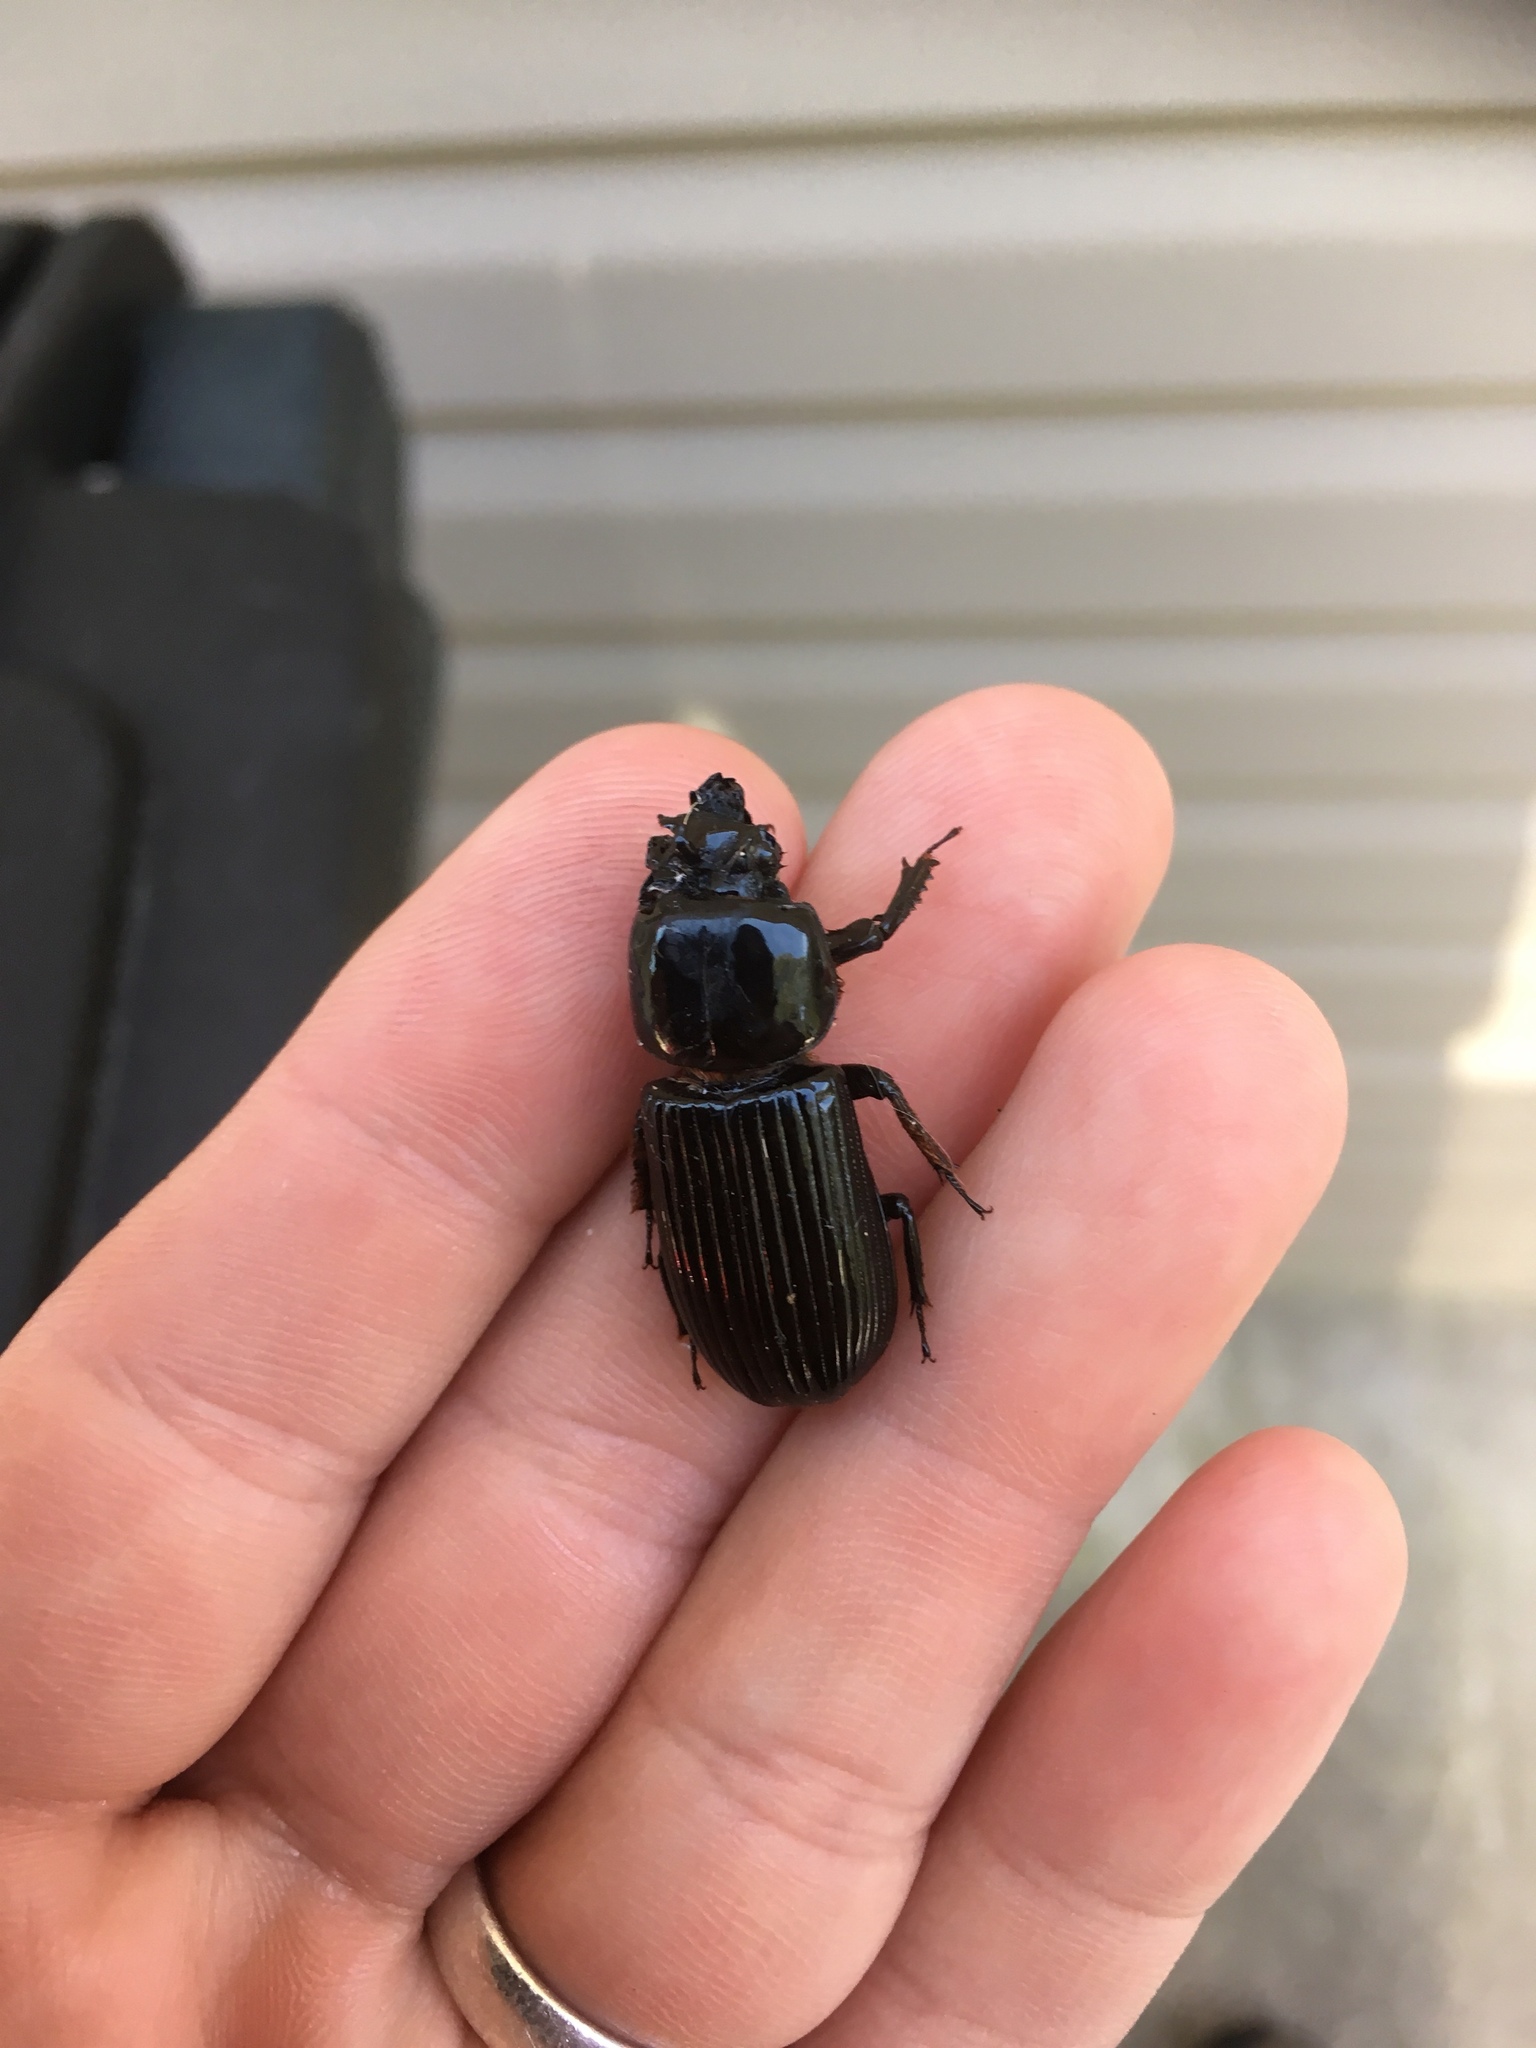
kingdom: Animalia
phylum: Arthropoda
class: Insecta
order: Coleoptera
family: Passalidae
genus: Odontotaenius
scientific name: Odontotaenius disjunctus
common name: Patent leather beetle
